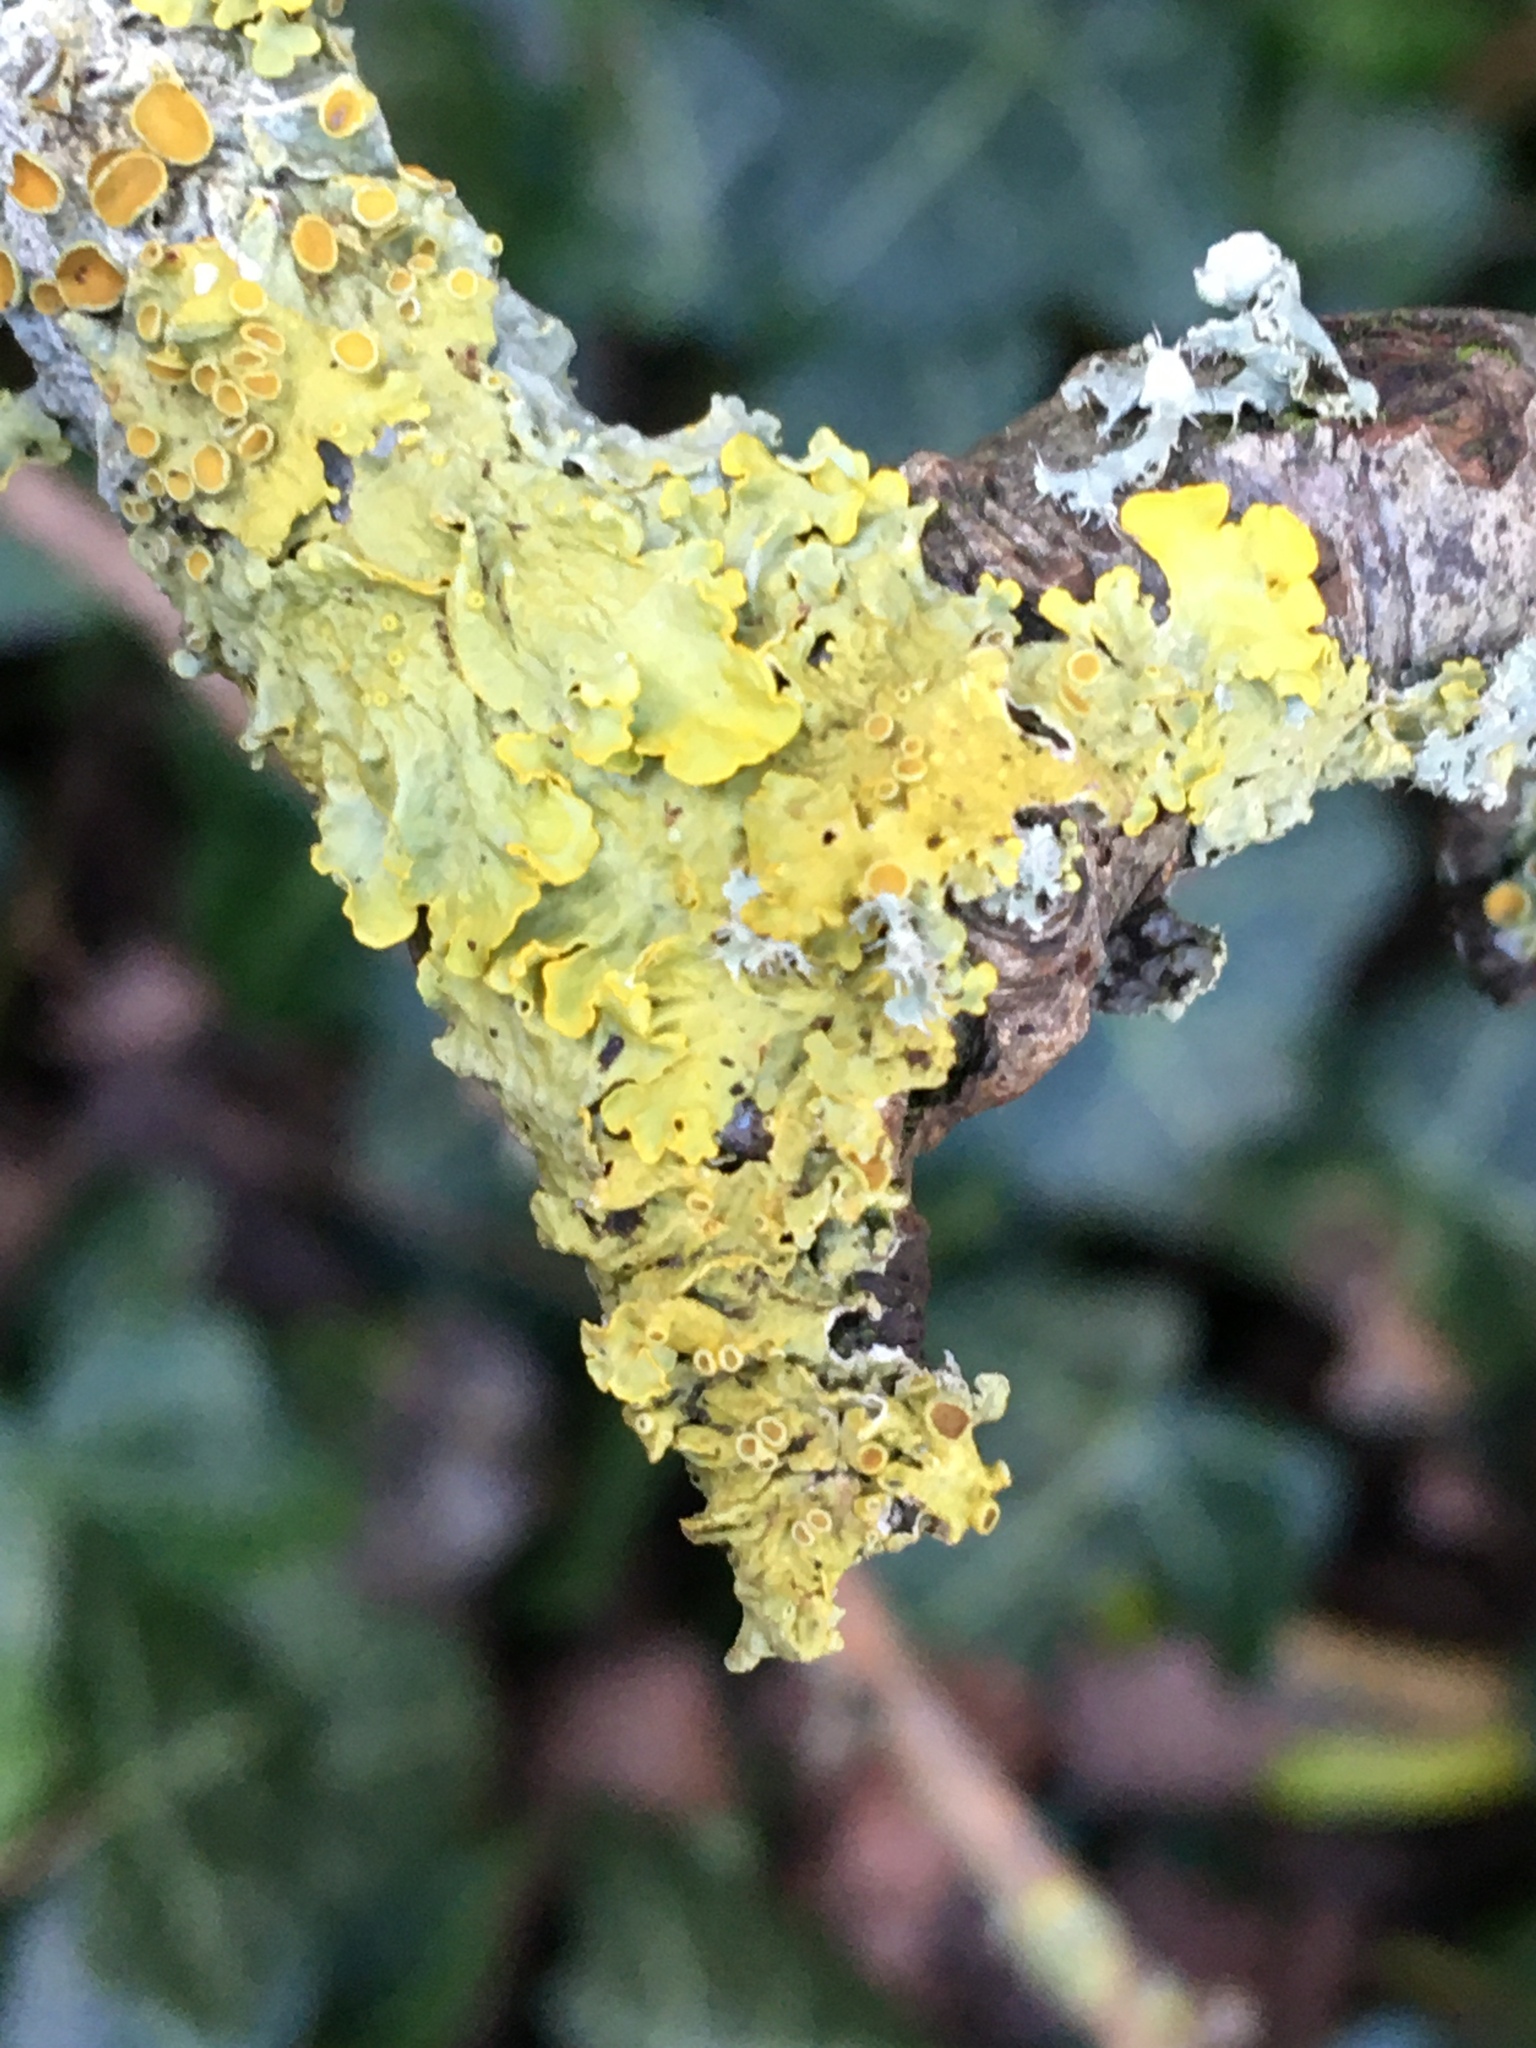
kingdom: Fungi
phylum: Ascomycota
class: Lecanoromycetes
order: Teloschistales
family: Teloschistaceae
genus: Xanthoria
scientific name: Xanthoria parietina
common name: Common orange lichen
